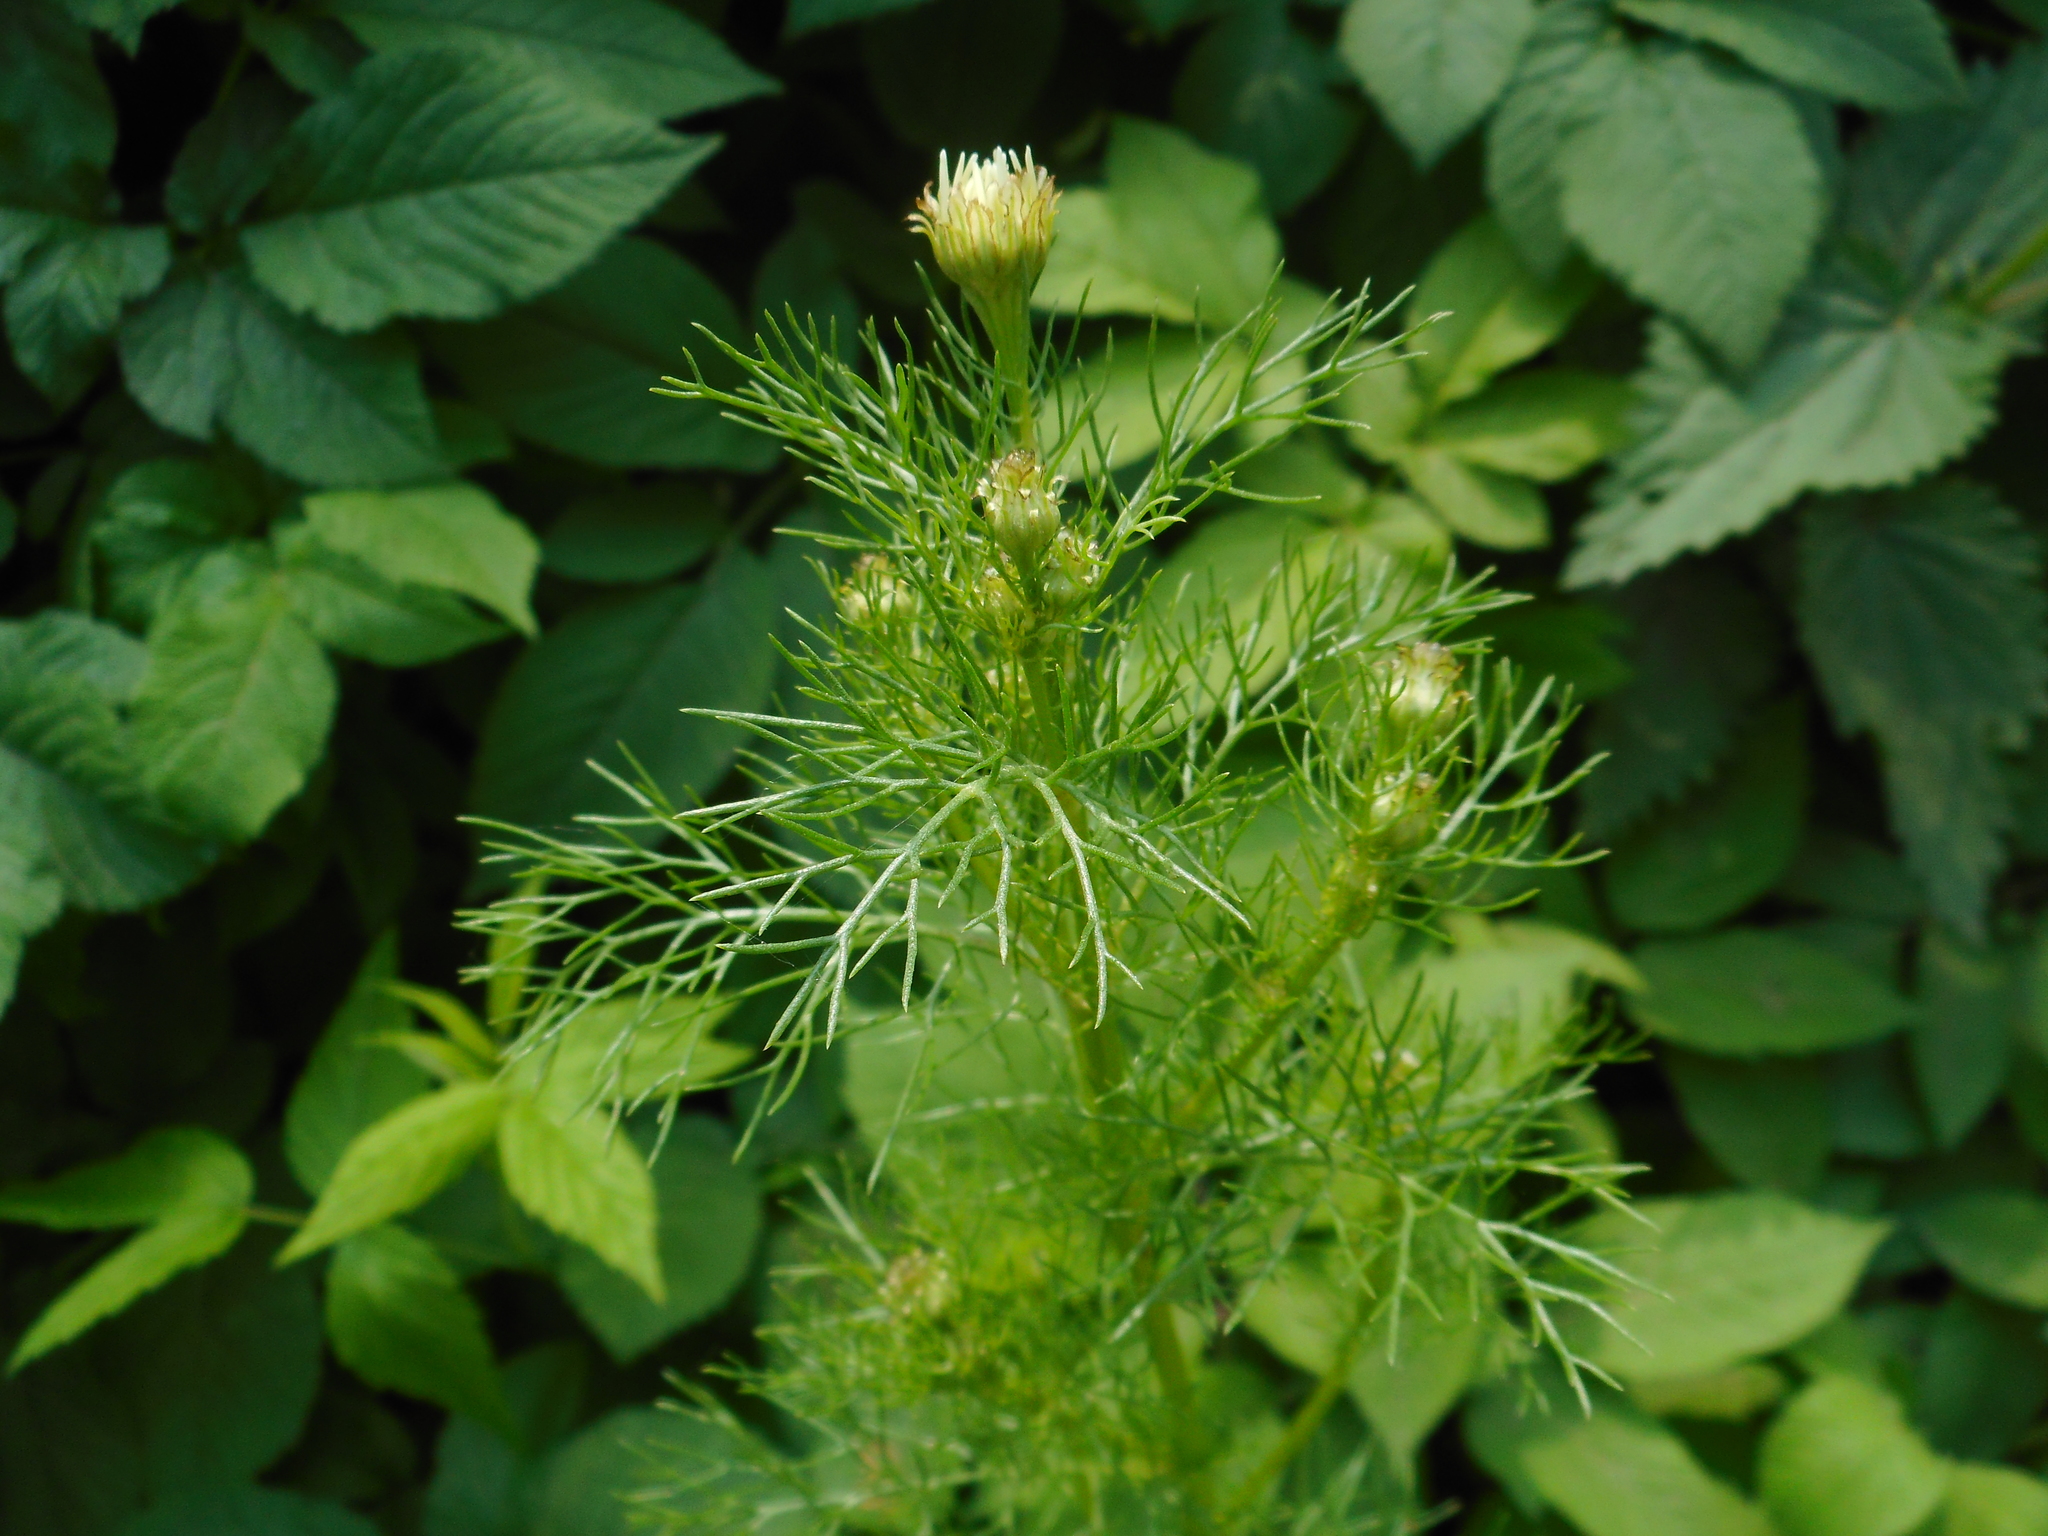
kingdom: Plantae
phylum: Tracheophyta
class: Magnoliopsida
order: Asterales
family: Asteraceae
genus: Tripleurospermum
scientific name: Tripleurospermum inodorum
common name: Scentless mayweed
